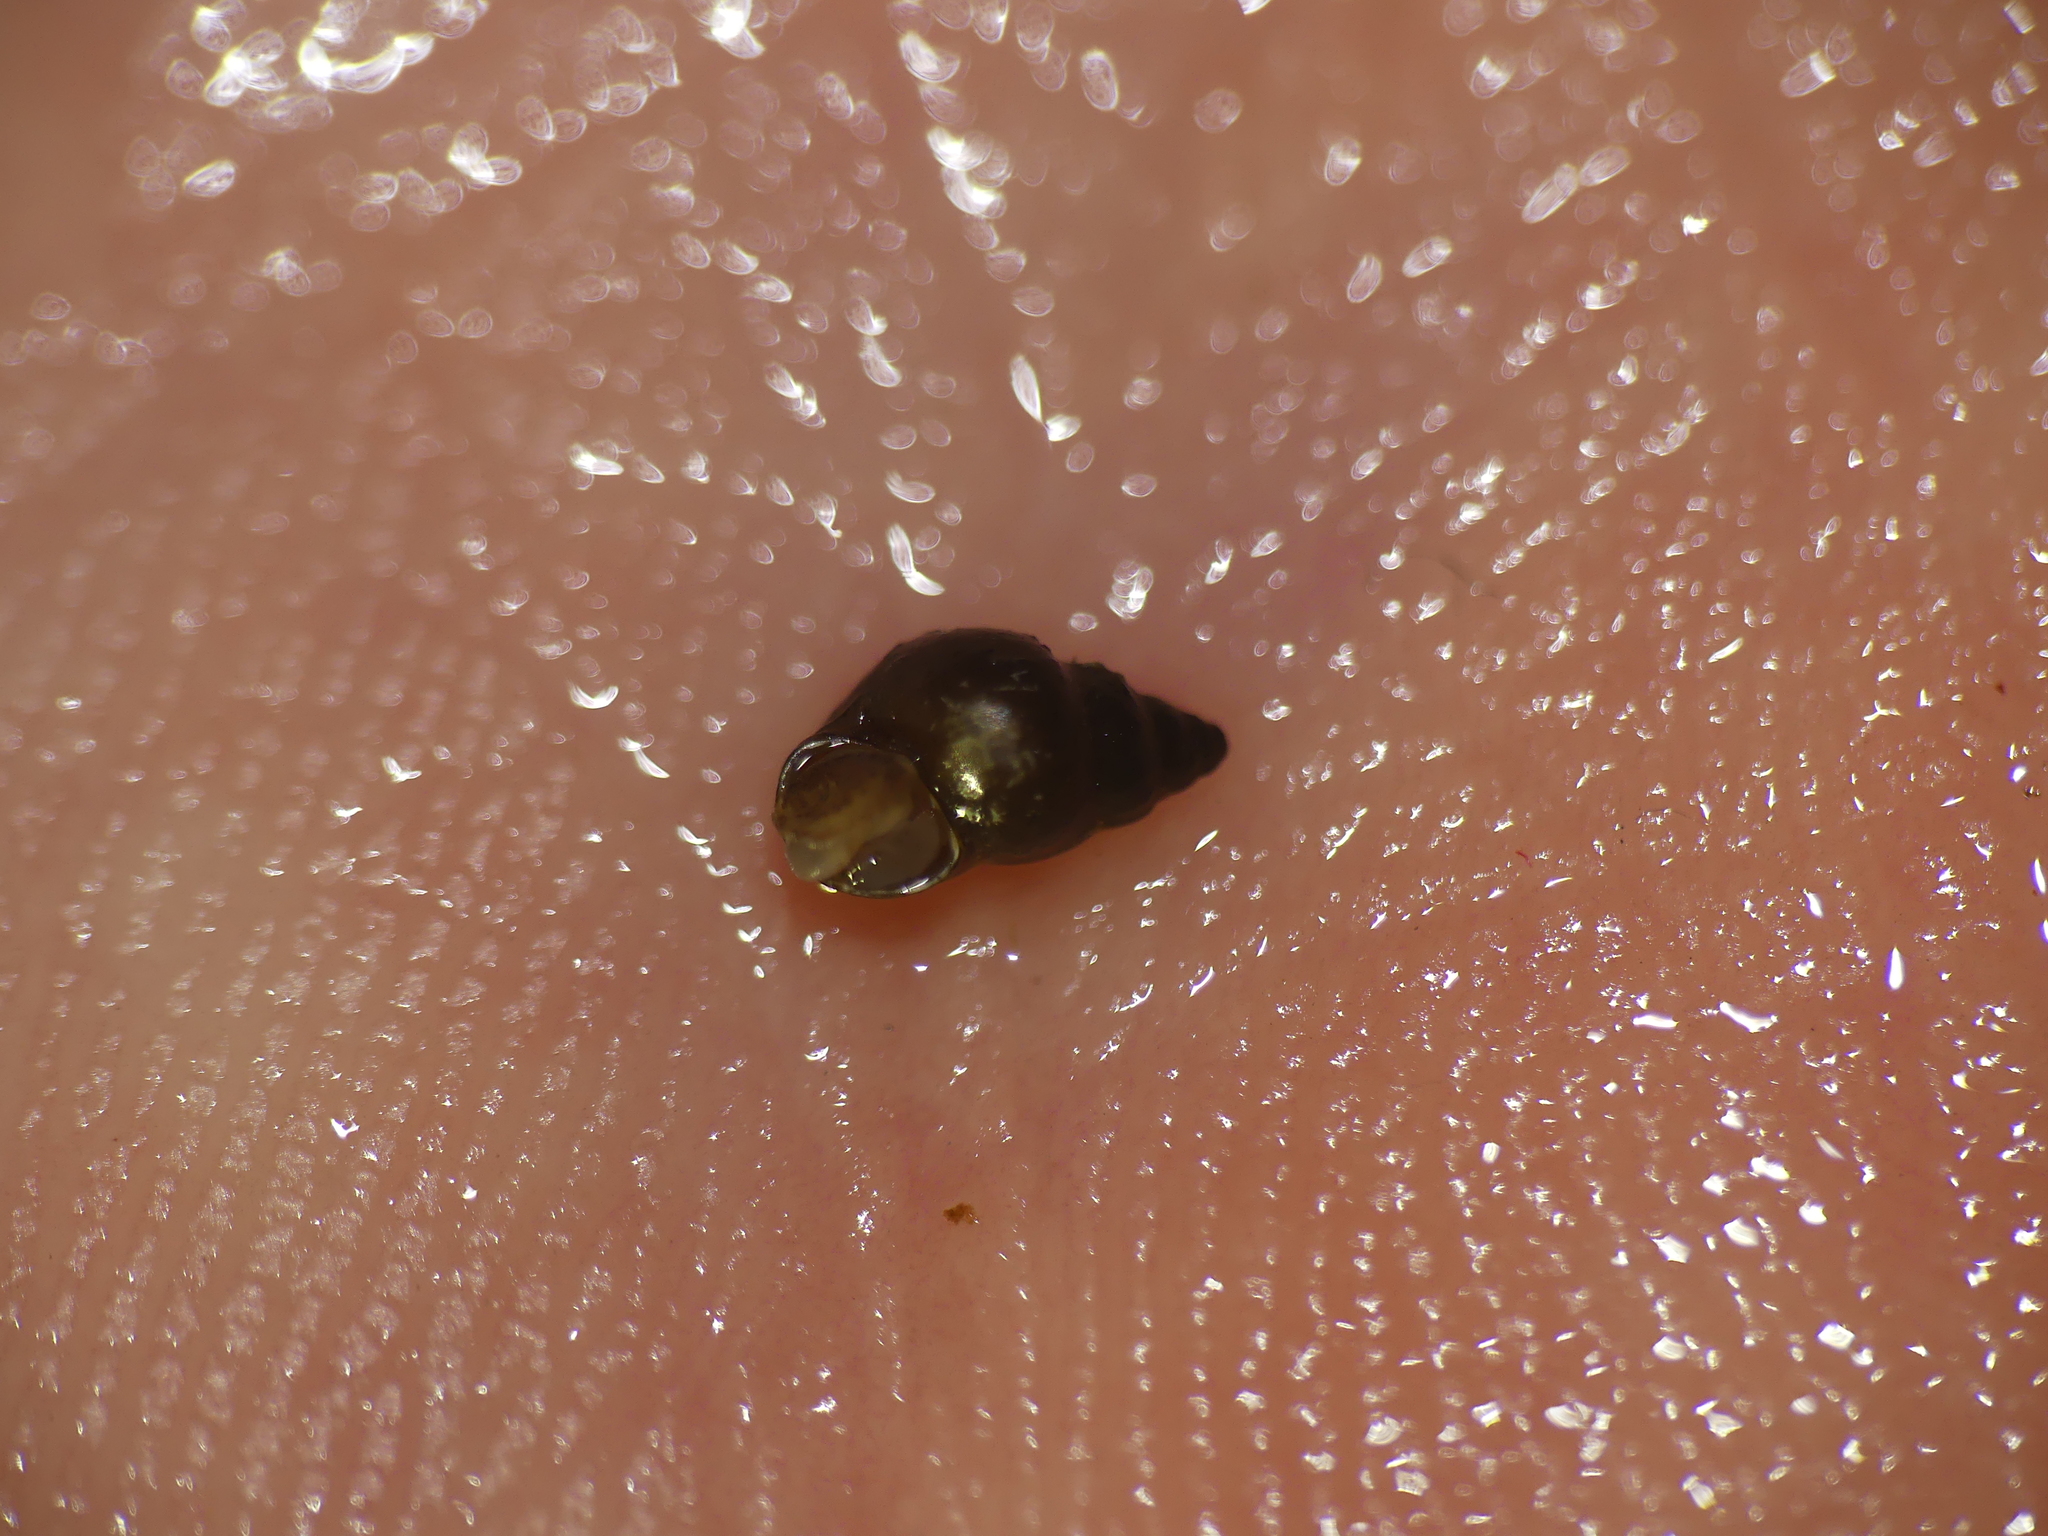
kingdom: Animalia
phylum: Mollusca
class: Gastropoda
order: Littorinimorpha
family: Tateidae
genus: Potamopyrgus
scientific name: Potamopyrgus antipodarum
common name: Jenkins' spire snail
